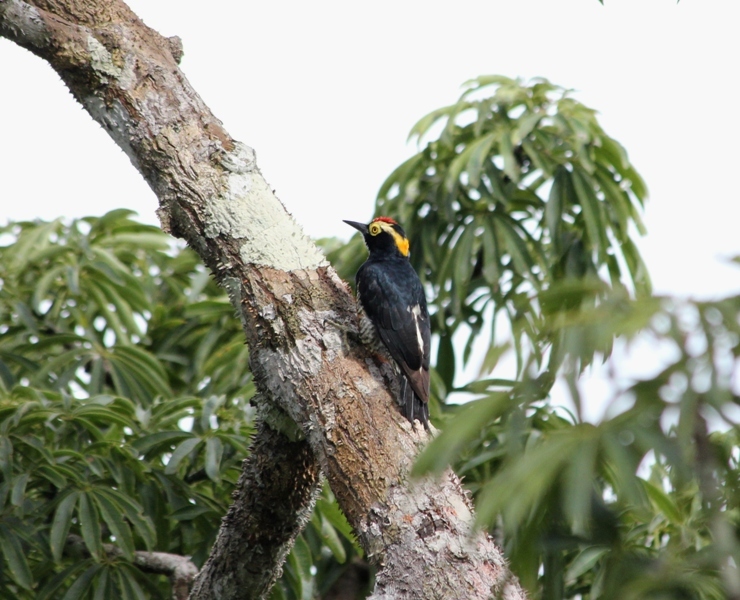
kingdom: Animalia
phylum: Chordata
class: Aves
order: Piciformes
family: Picidae
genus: Melanerpes
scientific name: Melanerpes cruentatus
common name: Yellow-tufted woodpecker
